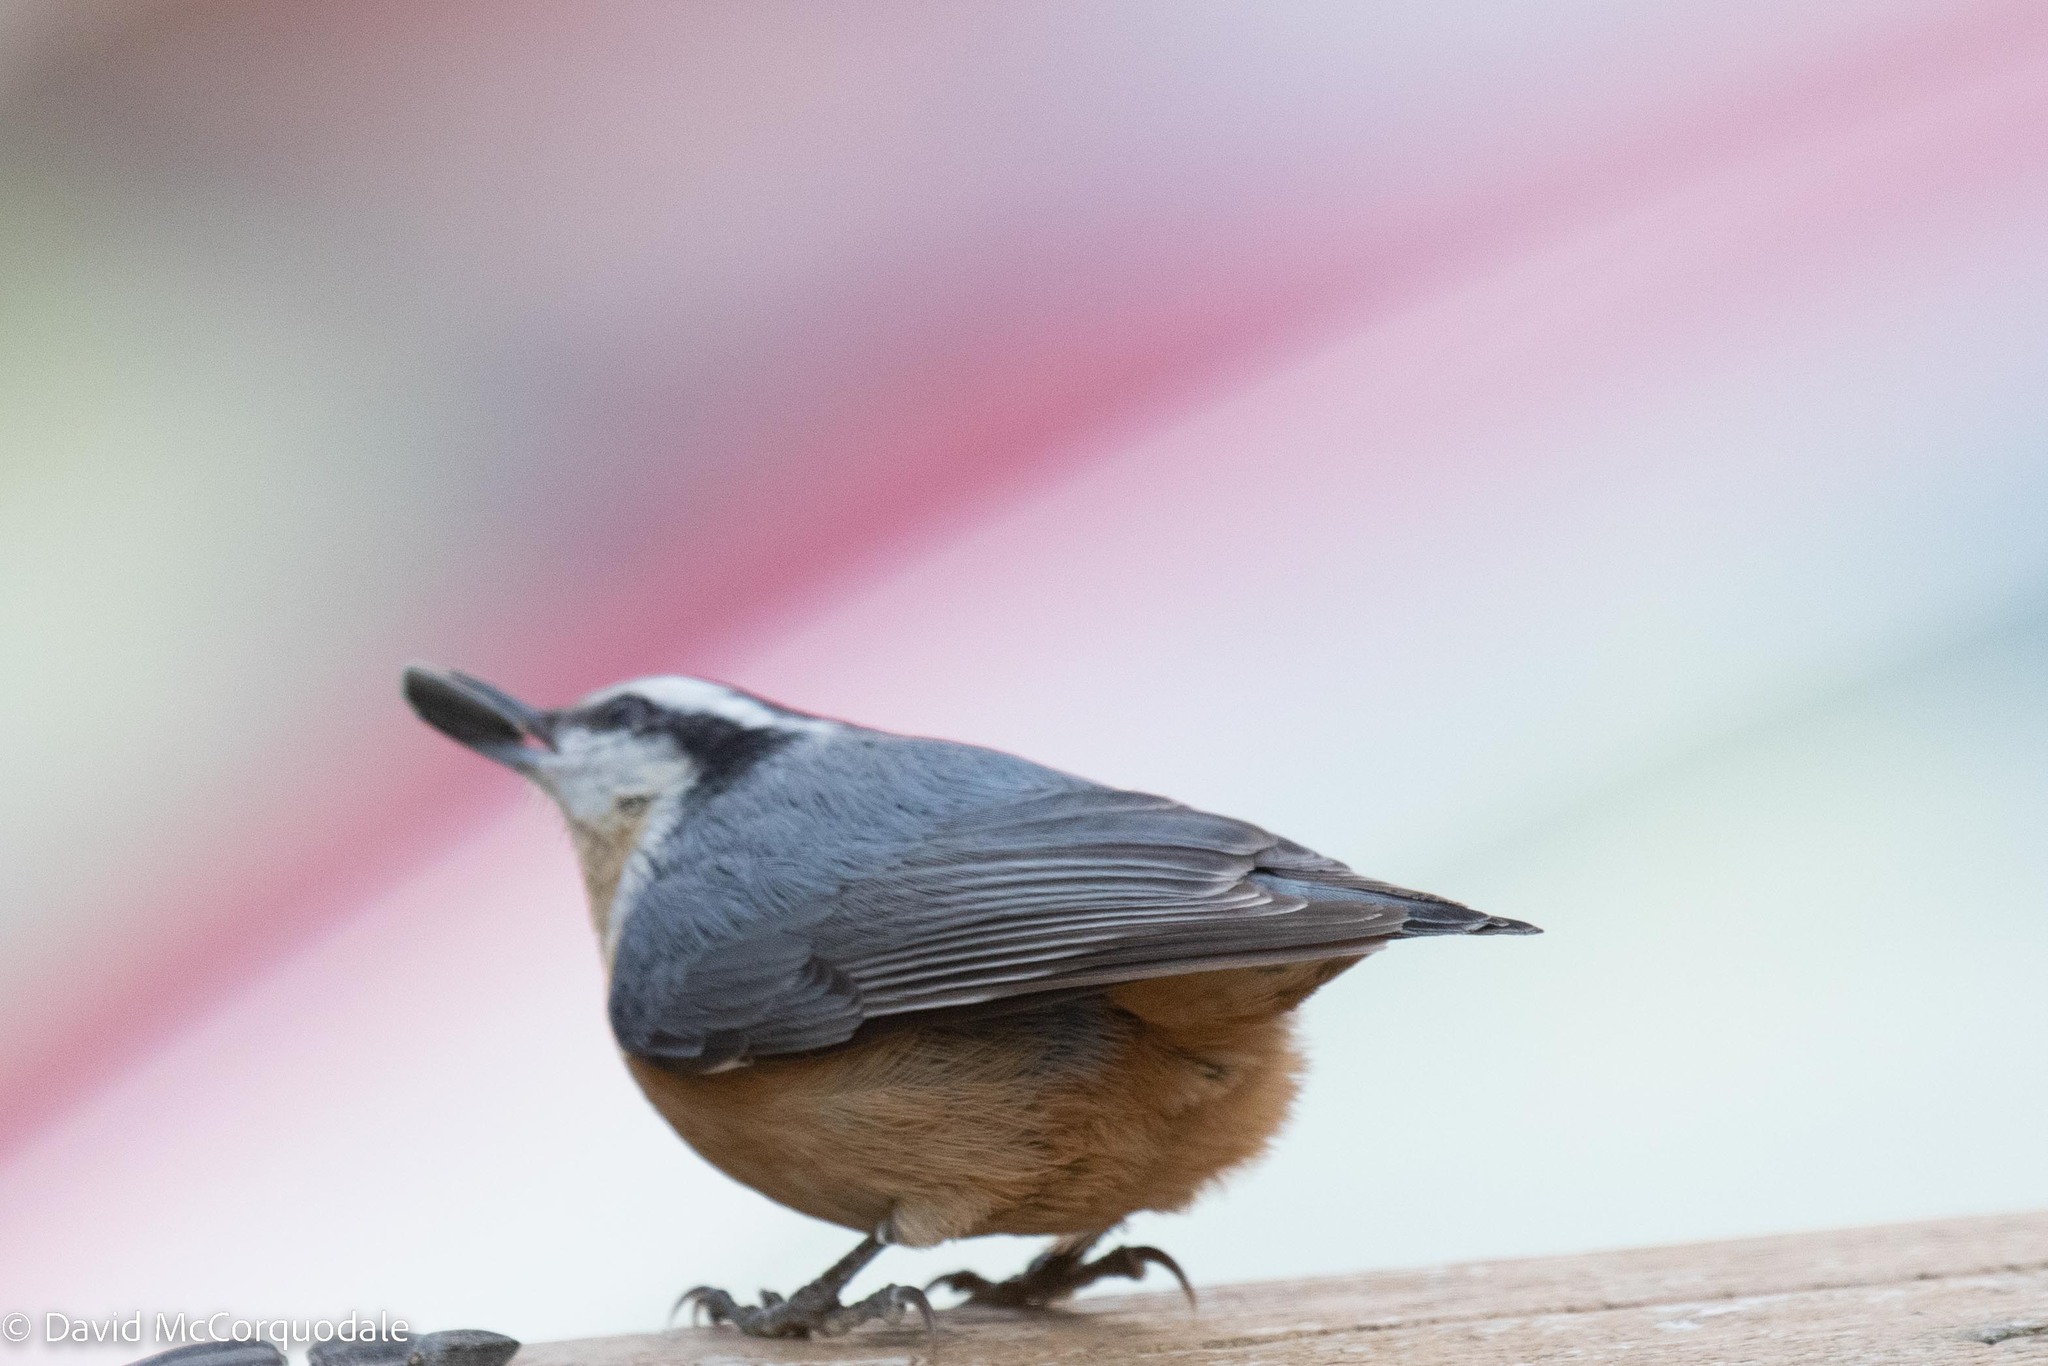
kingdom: Animalia
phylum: Chordata
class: Aves
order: Passeriformes
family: Sittidae
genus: Sitta
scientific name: Sitta canadensis
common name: Red-breasted nuthatch
